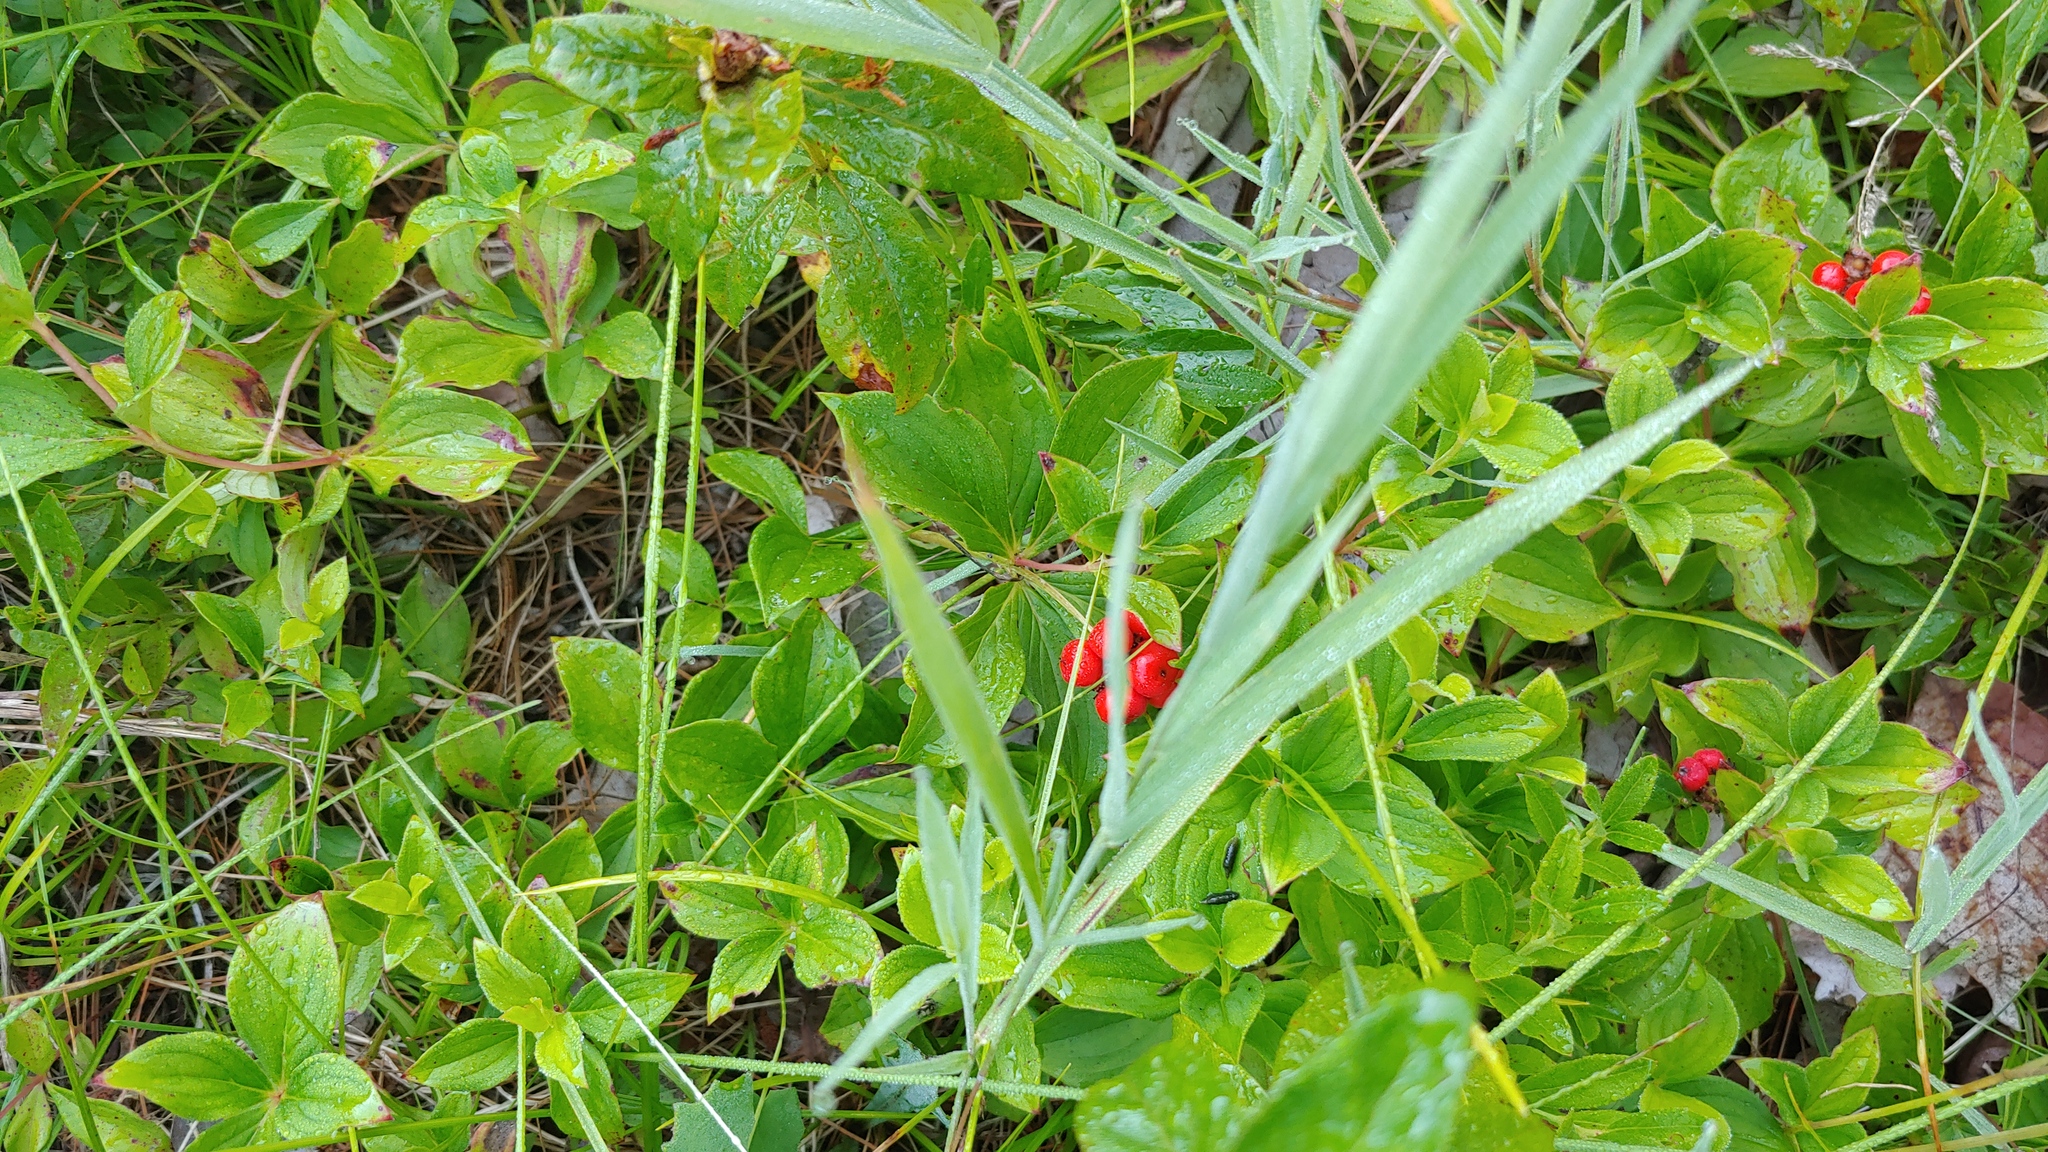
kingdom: Plantae
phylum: Tracheophyta
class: Magnoliopsida
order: Cornales
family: Cornaceae
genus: Cornus
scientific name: Cornus canadensis
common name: Creeping dogwood
